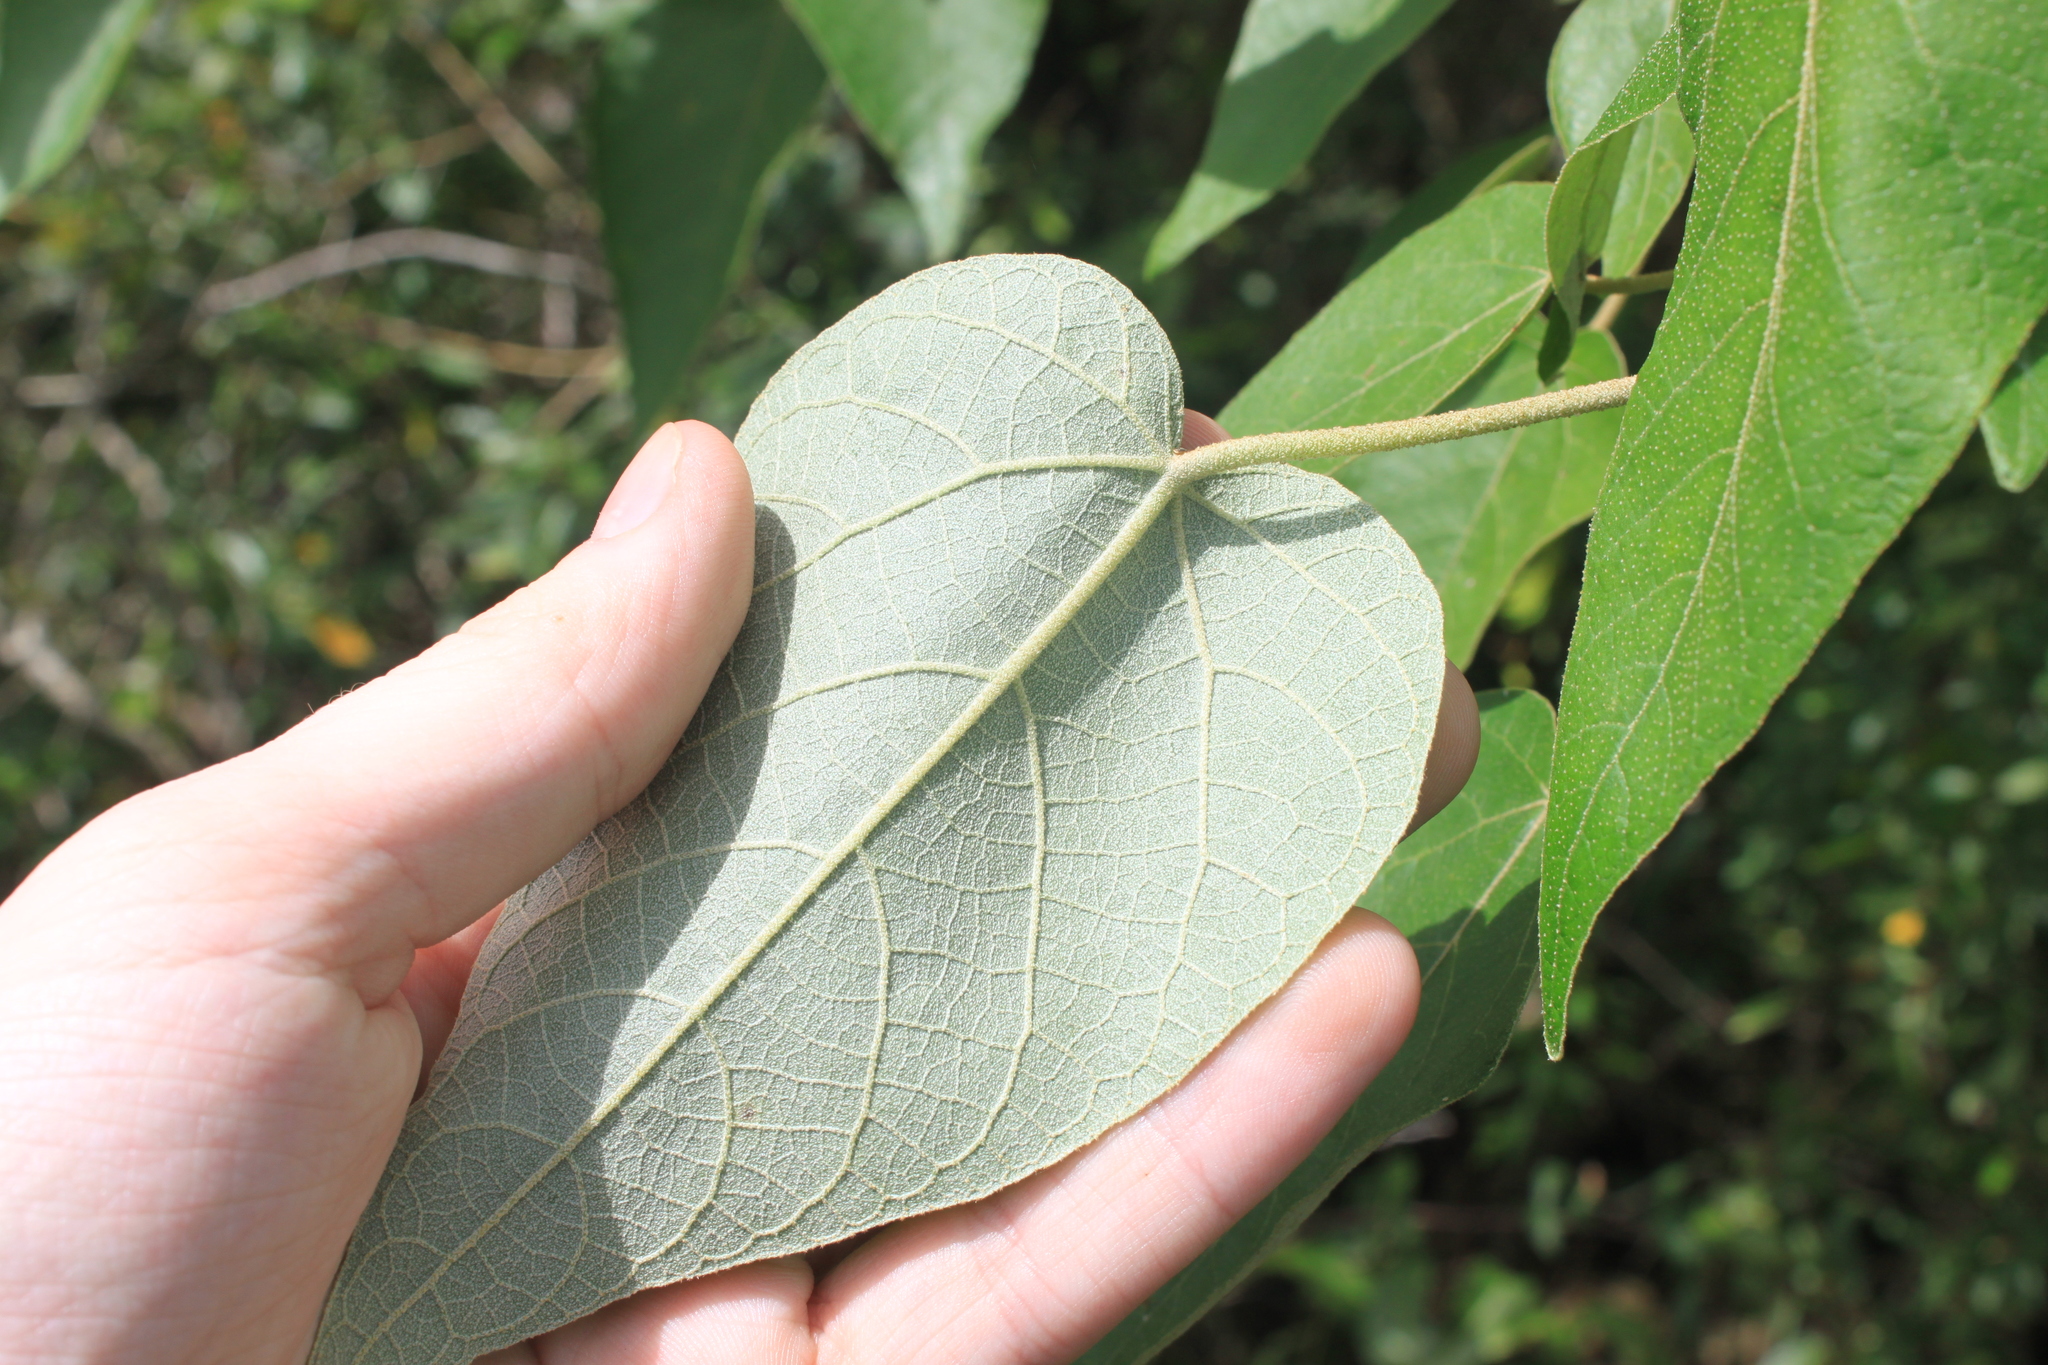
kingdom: Plantae
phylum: Tracheophyta
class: Magnoliopsida
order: Malpighiales
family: Euphorbiaceae
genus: Croton
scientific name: Croton urucurana
